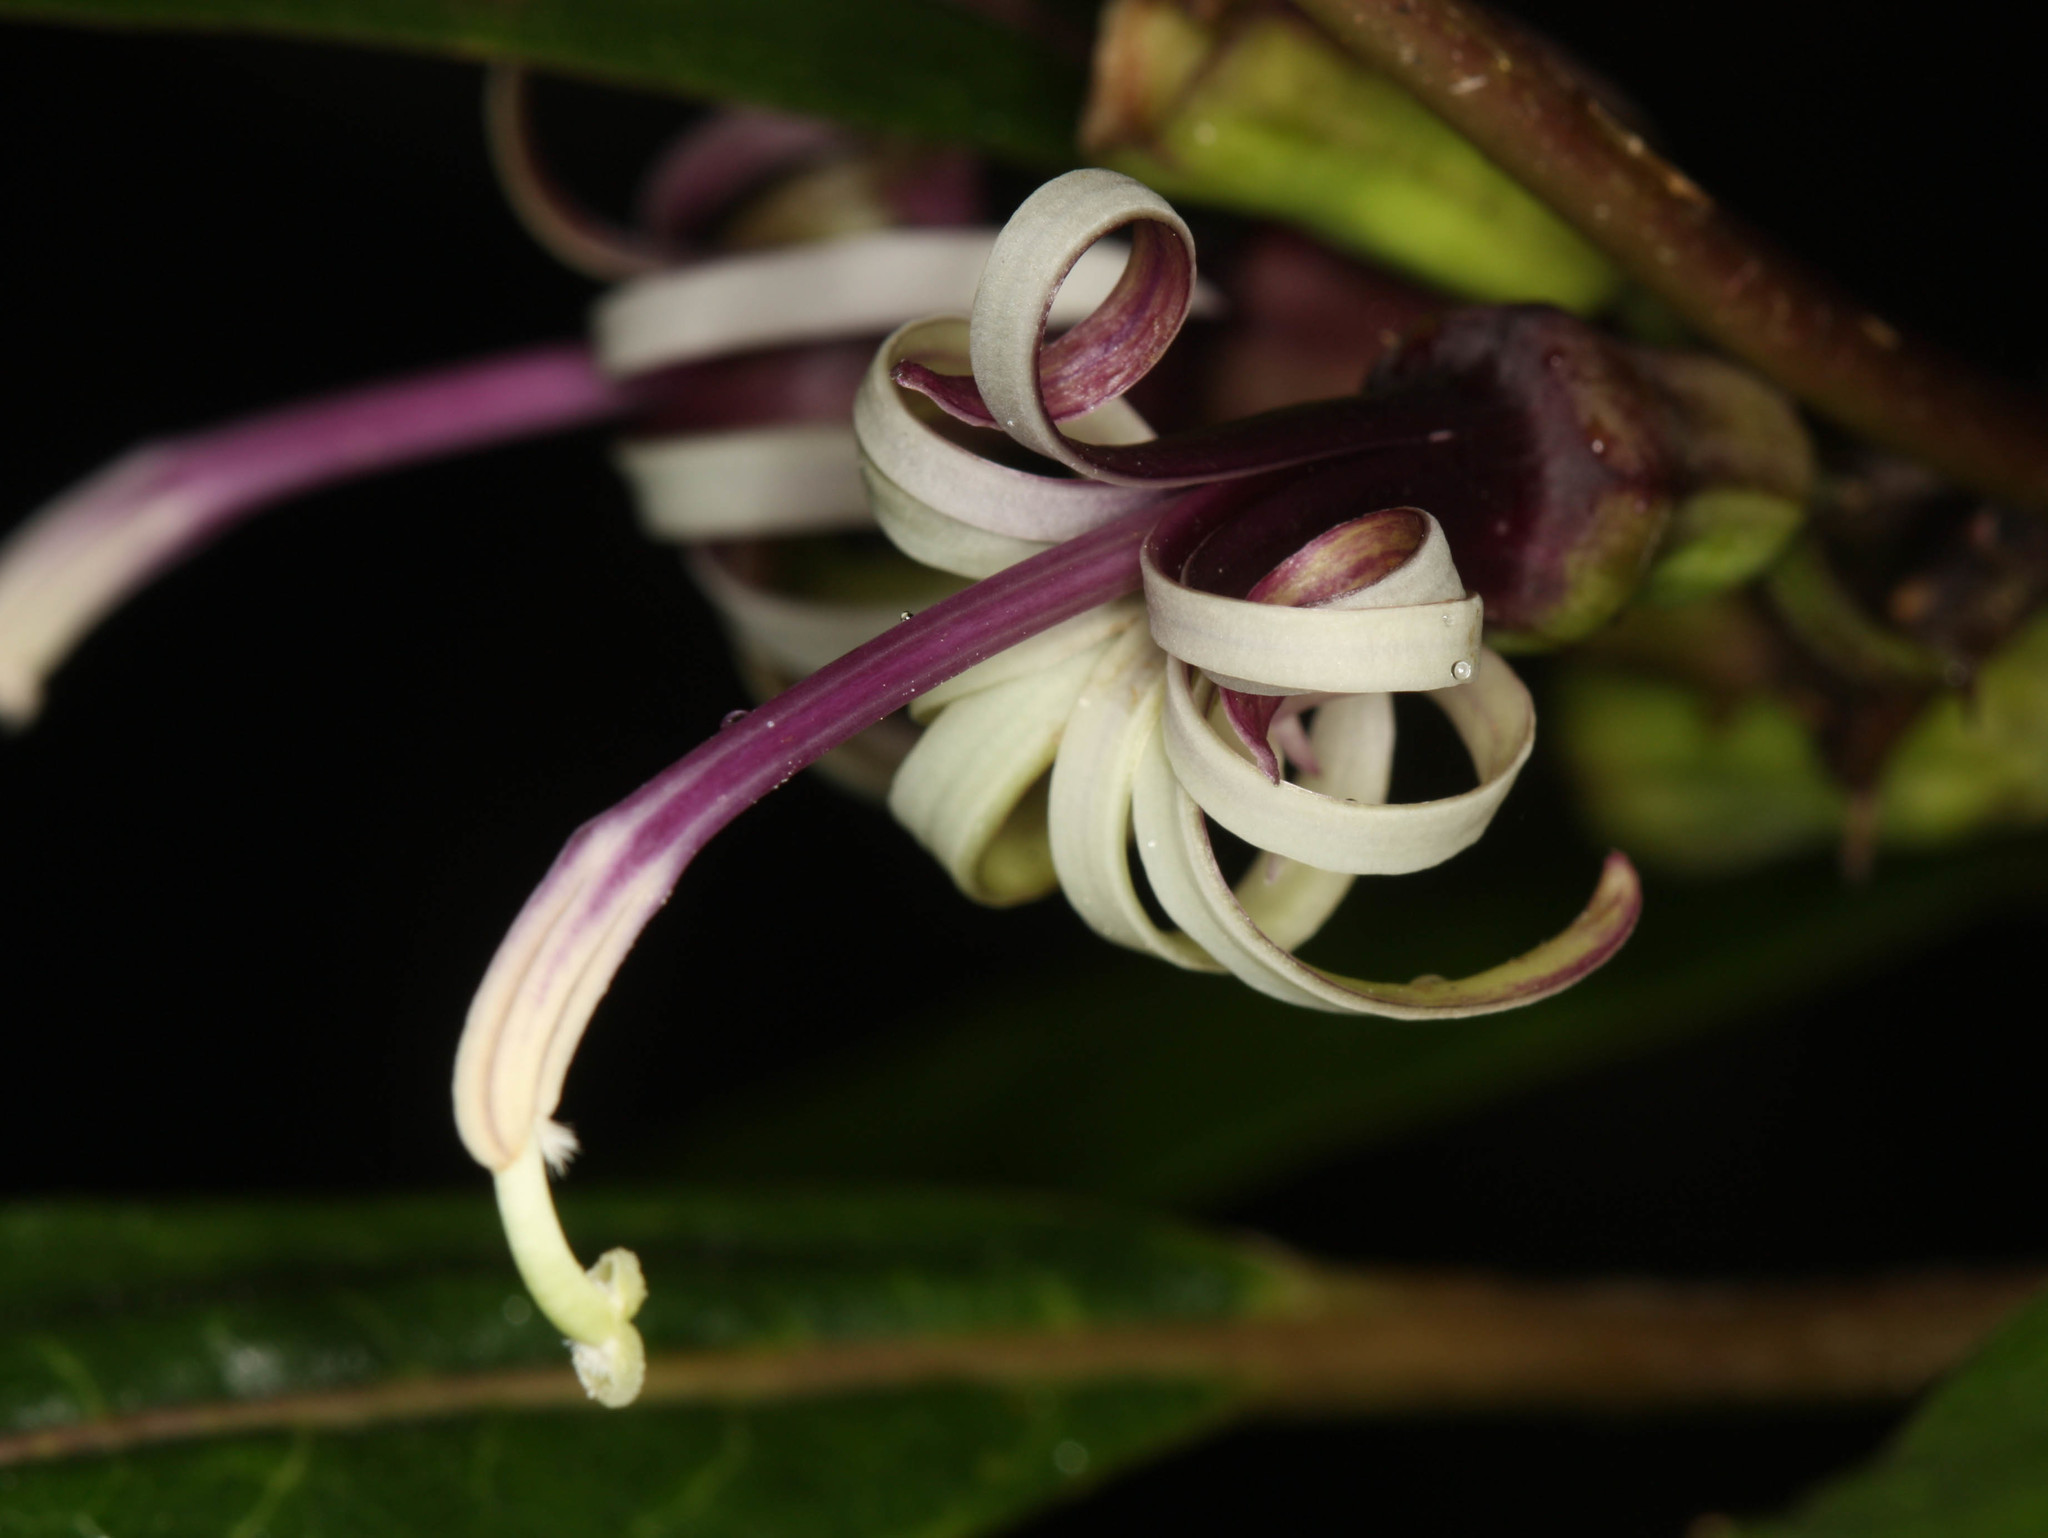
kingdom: Plantae
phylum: Tracheophyta
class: Magnoliopsida
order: Asterales
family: Campanulaceae
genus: Clermontia
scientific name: Clermontia parviflora
